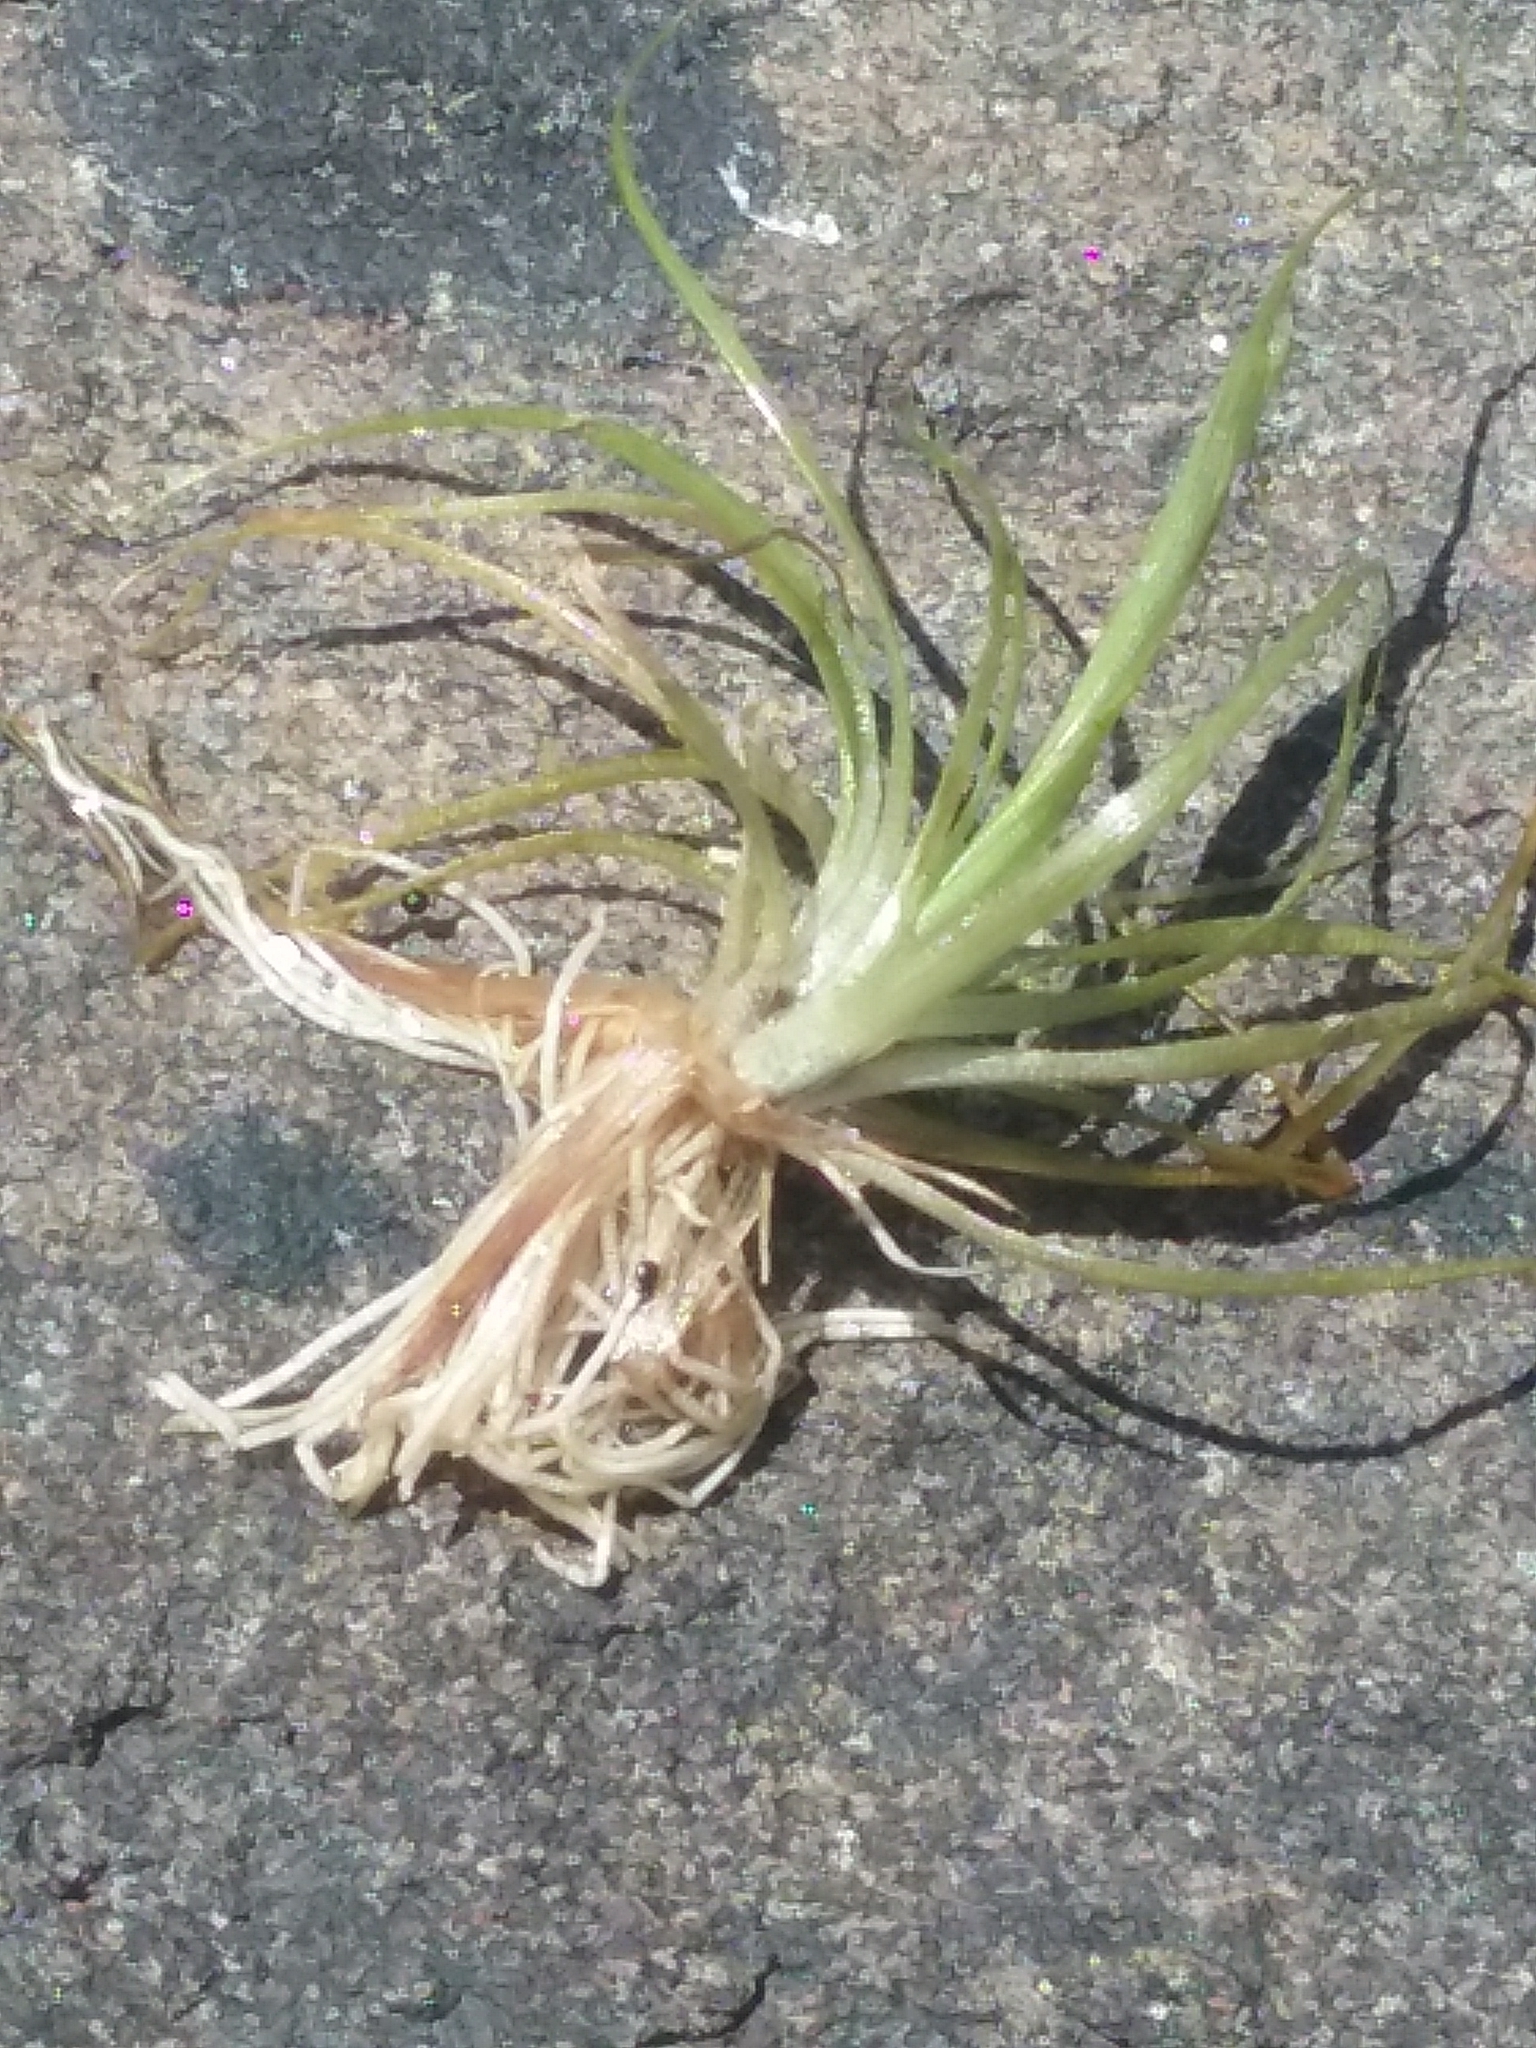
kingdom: Plantae
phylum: Tracheophyta
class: Liliopsida
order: Poales
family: Eriocaulaceae
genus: Eriocaulon
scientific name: Eriocaulon aquaticum
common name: Pipewort
